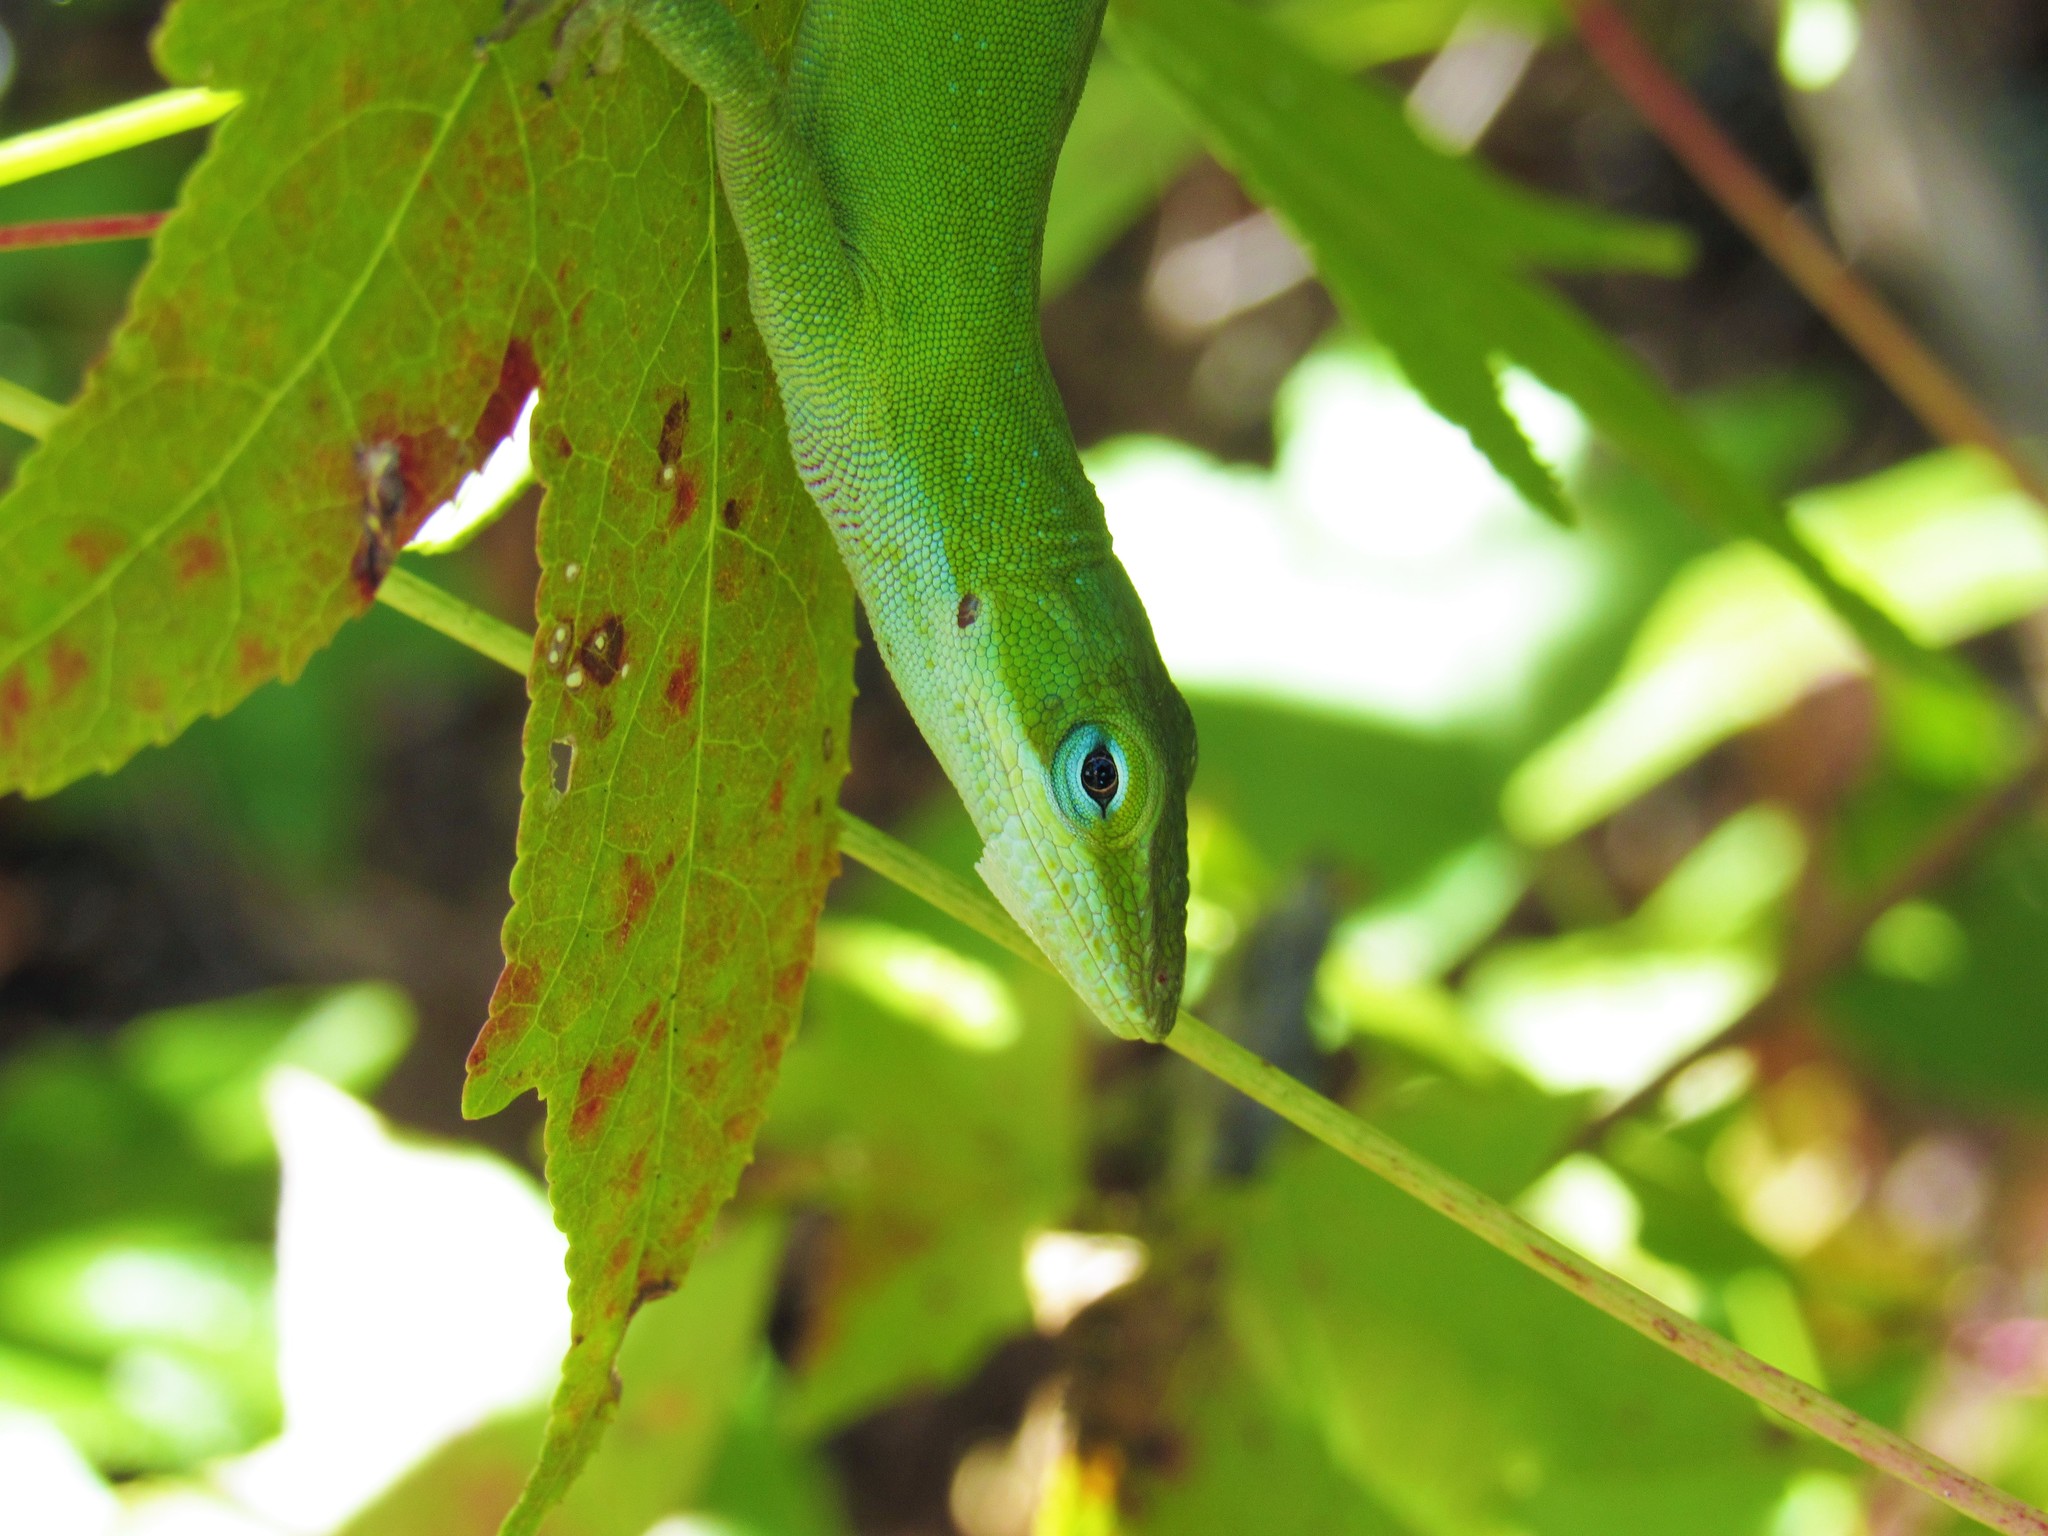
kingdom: Animalia
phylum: Chordata
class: Squamata
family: Dactyloidae
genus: Anolis
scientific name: Anolis carolinensis
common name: Green anole
